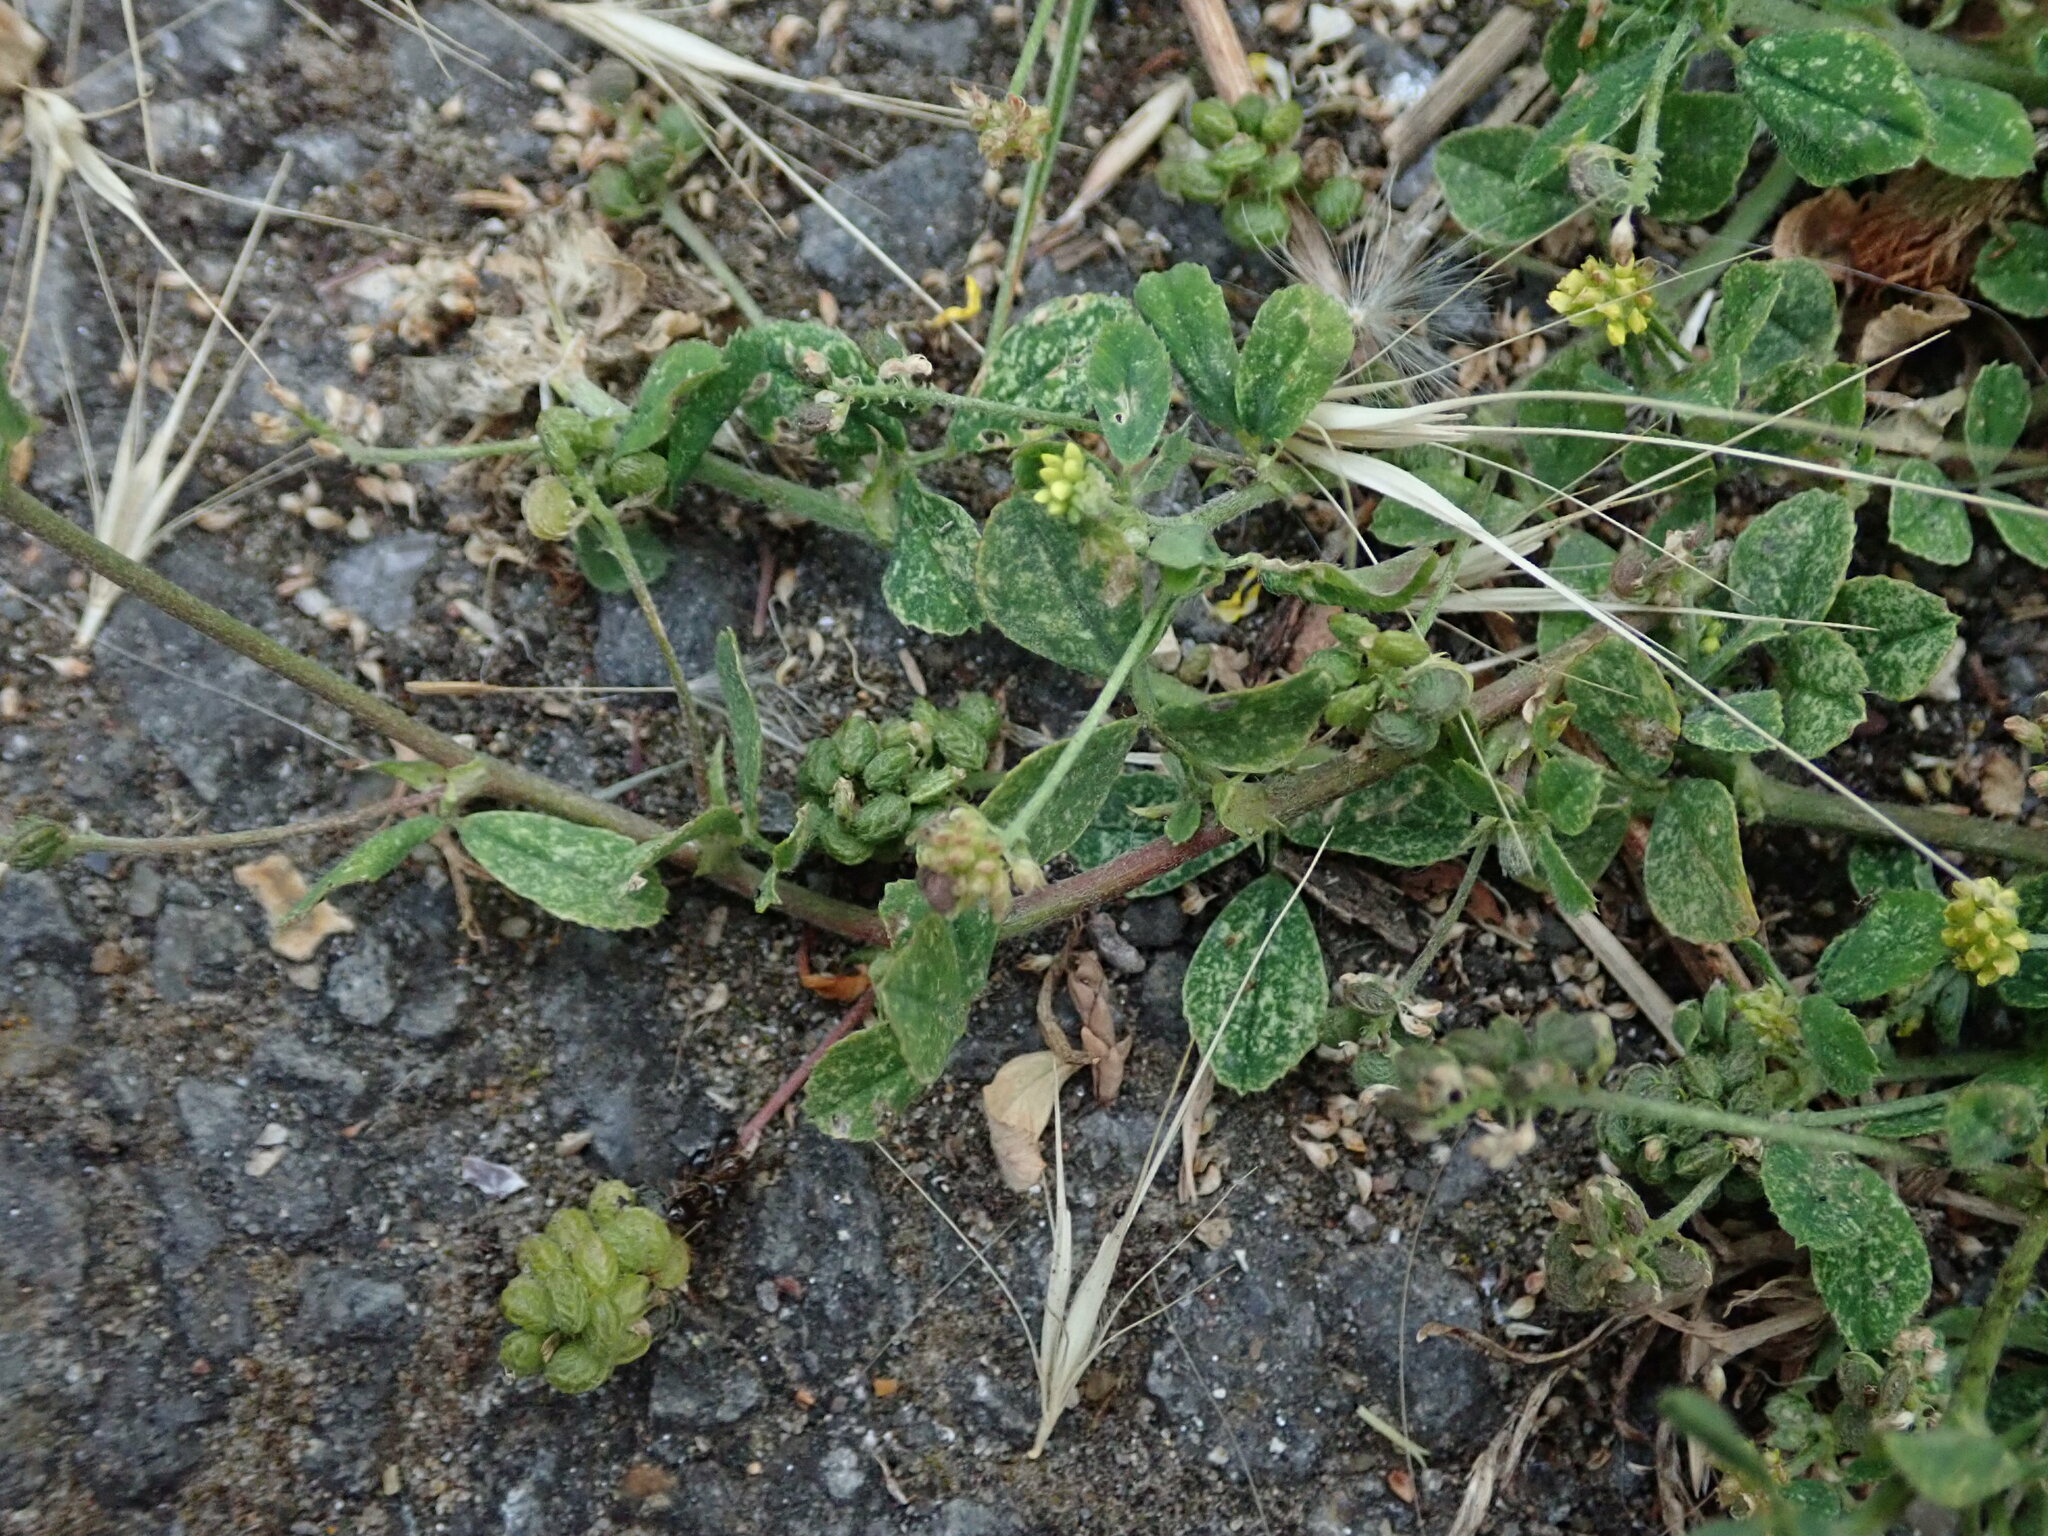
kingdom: Plantae
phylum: Tracheophyta
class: Magnoliopsida
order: Fabales
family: Fabaceae
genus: Medicago
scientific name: Medicago lupulina
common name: Black medick
